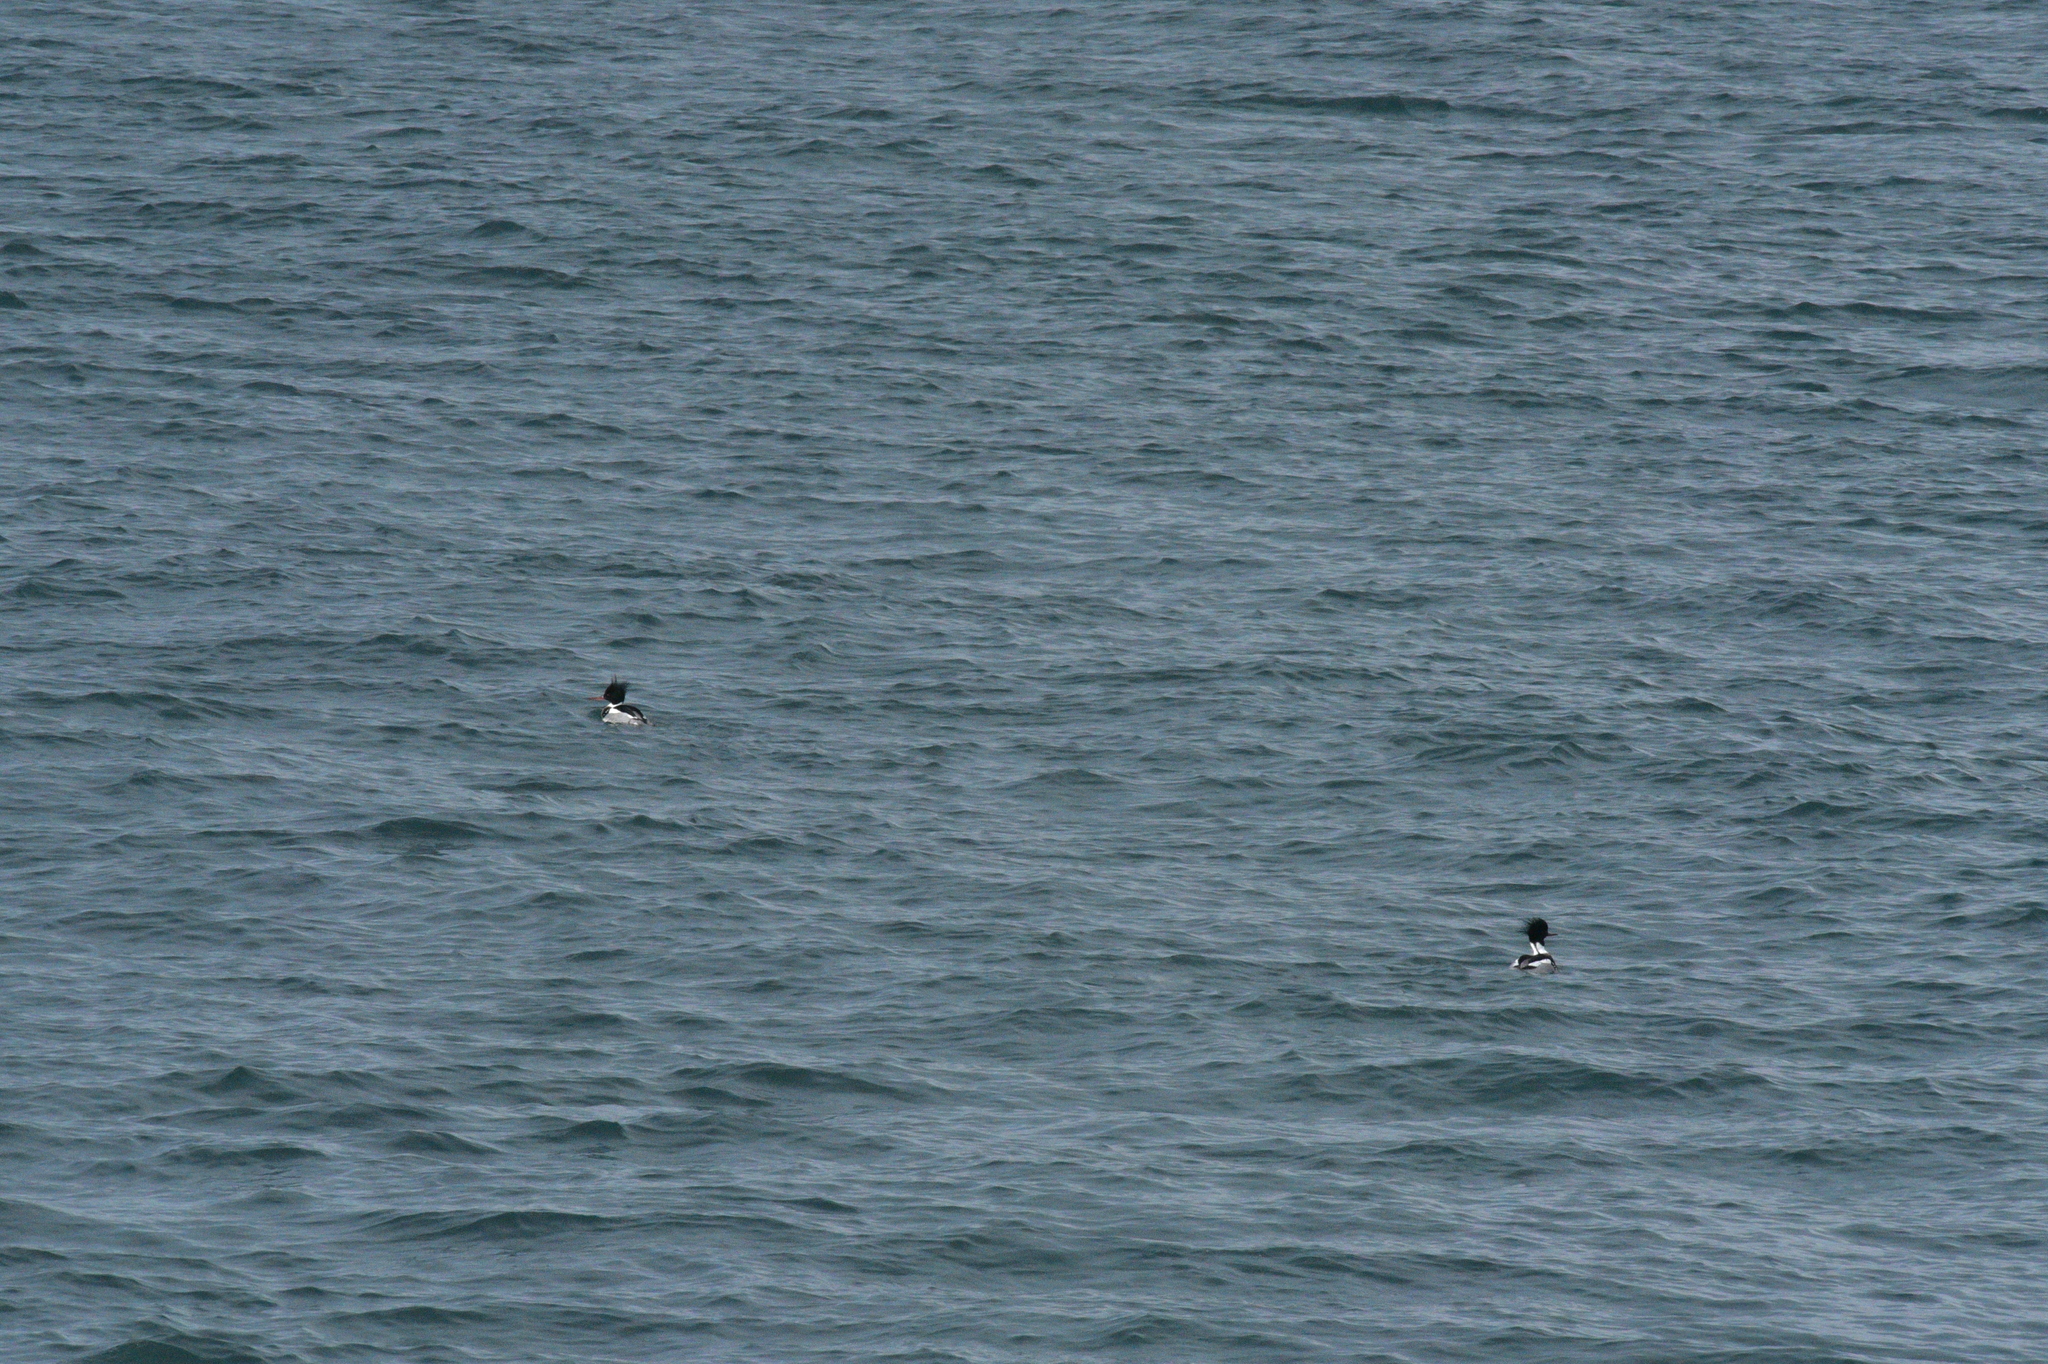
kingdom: Animalia
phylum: Chordata
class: Aves
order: Anseriformes
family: Anatidae
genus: Mergus
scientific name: Mergus serrator
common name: Red-breasted merganser
